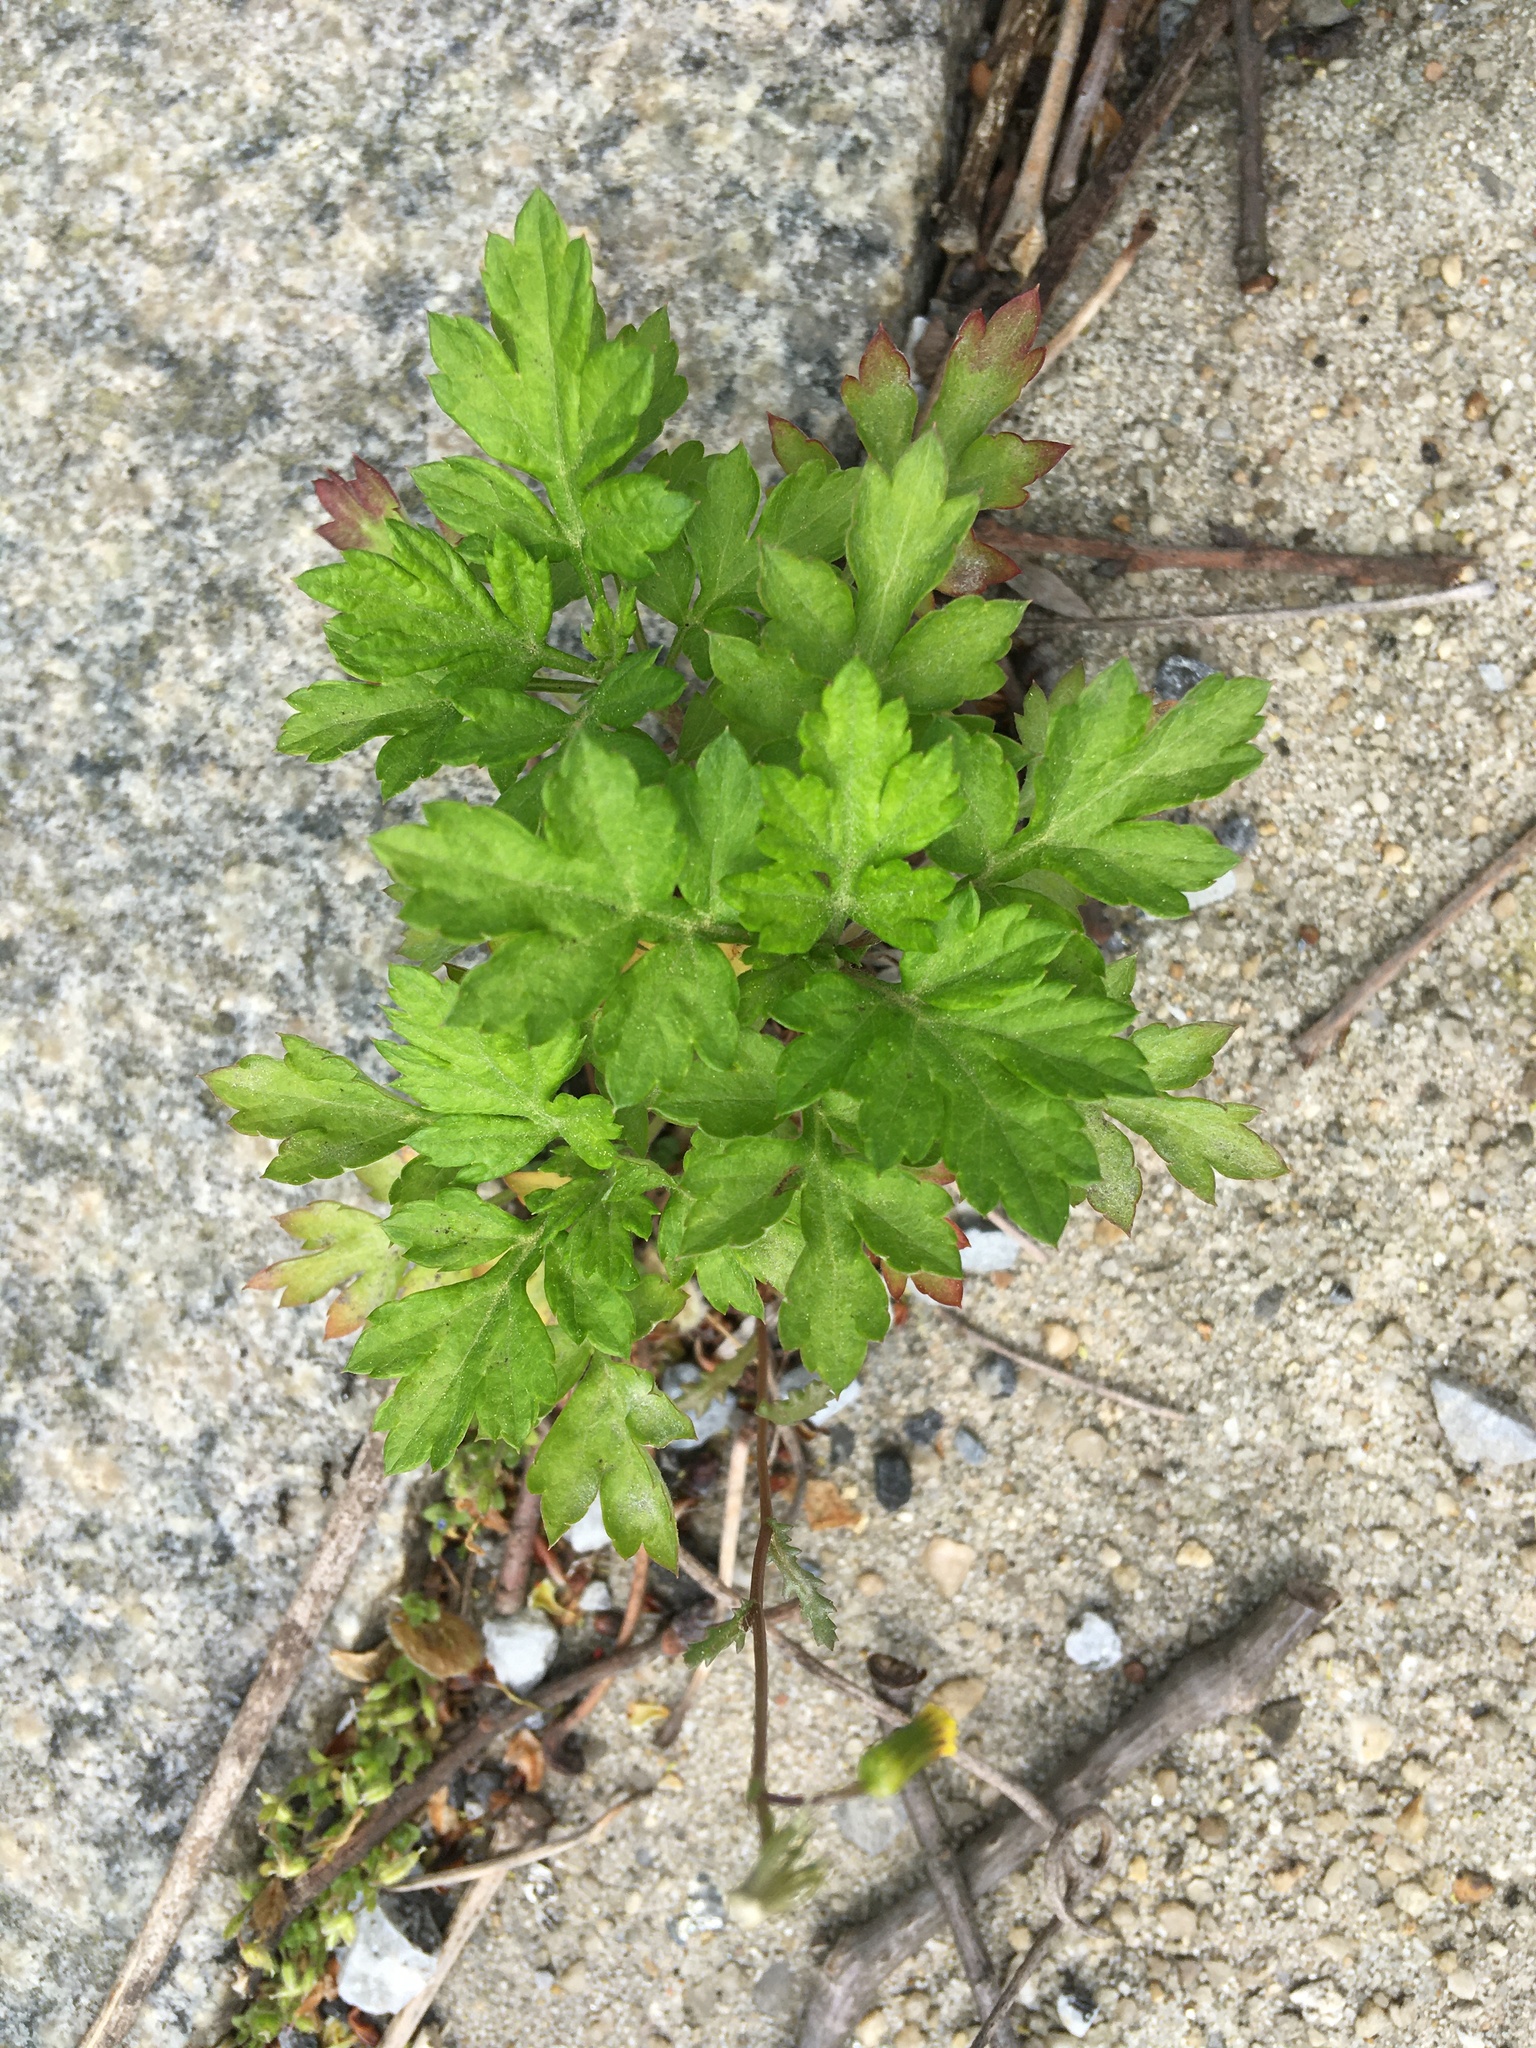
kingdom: Plantae
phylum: Tracheophyta
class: Magnoliopsida
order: Asterales
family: Asteraceae
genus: Artemisia
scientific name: Artemisia vulgaris
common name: Mugwort
